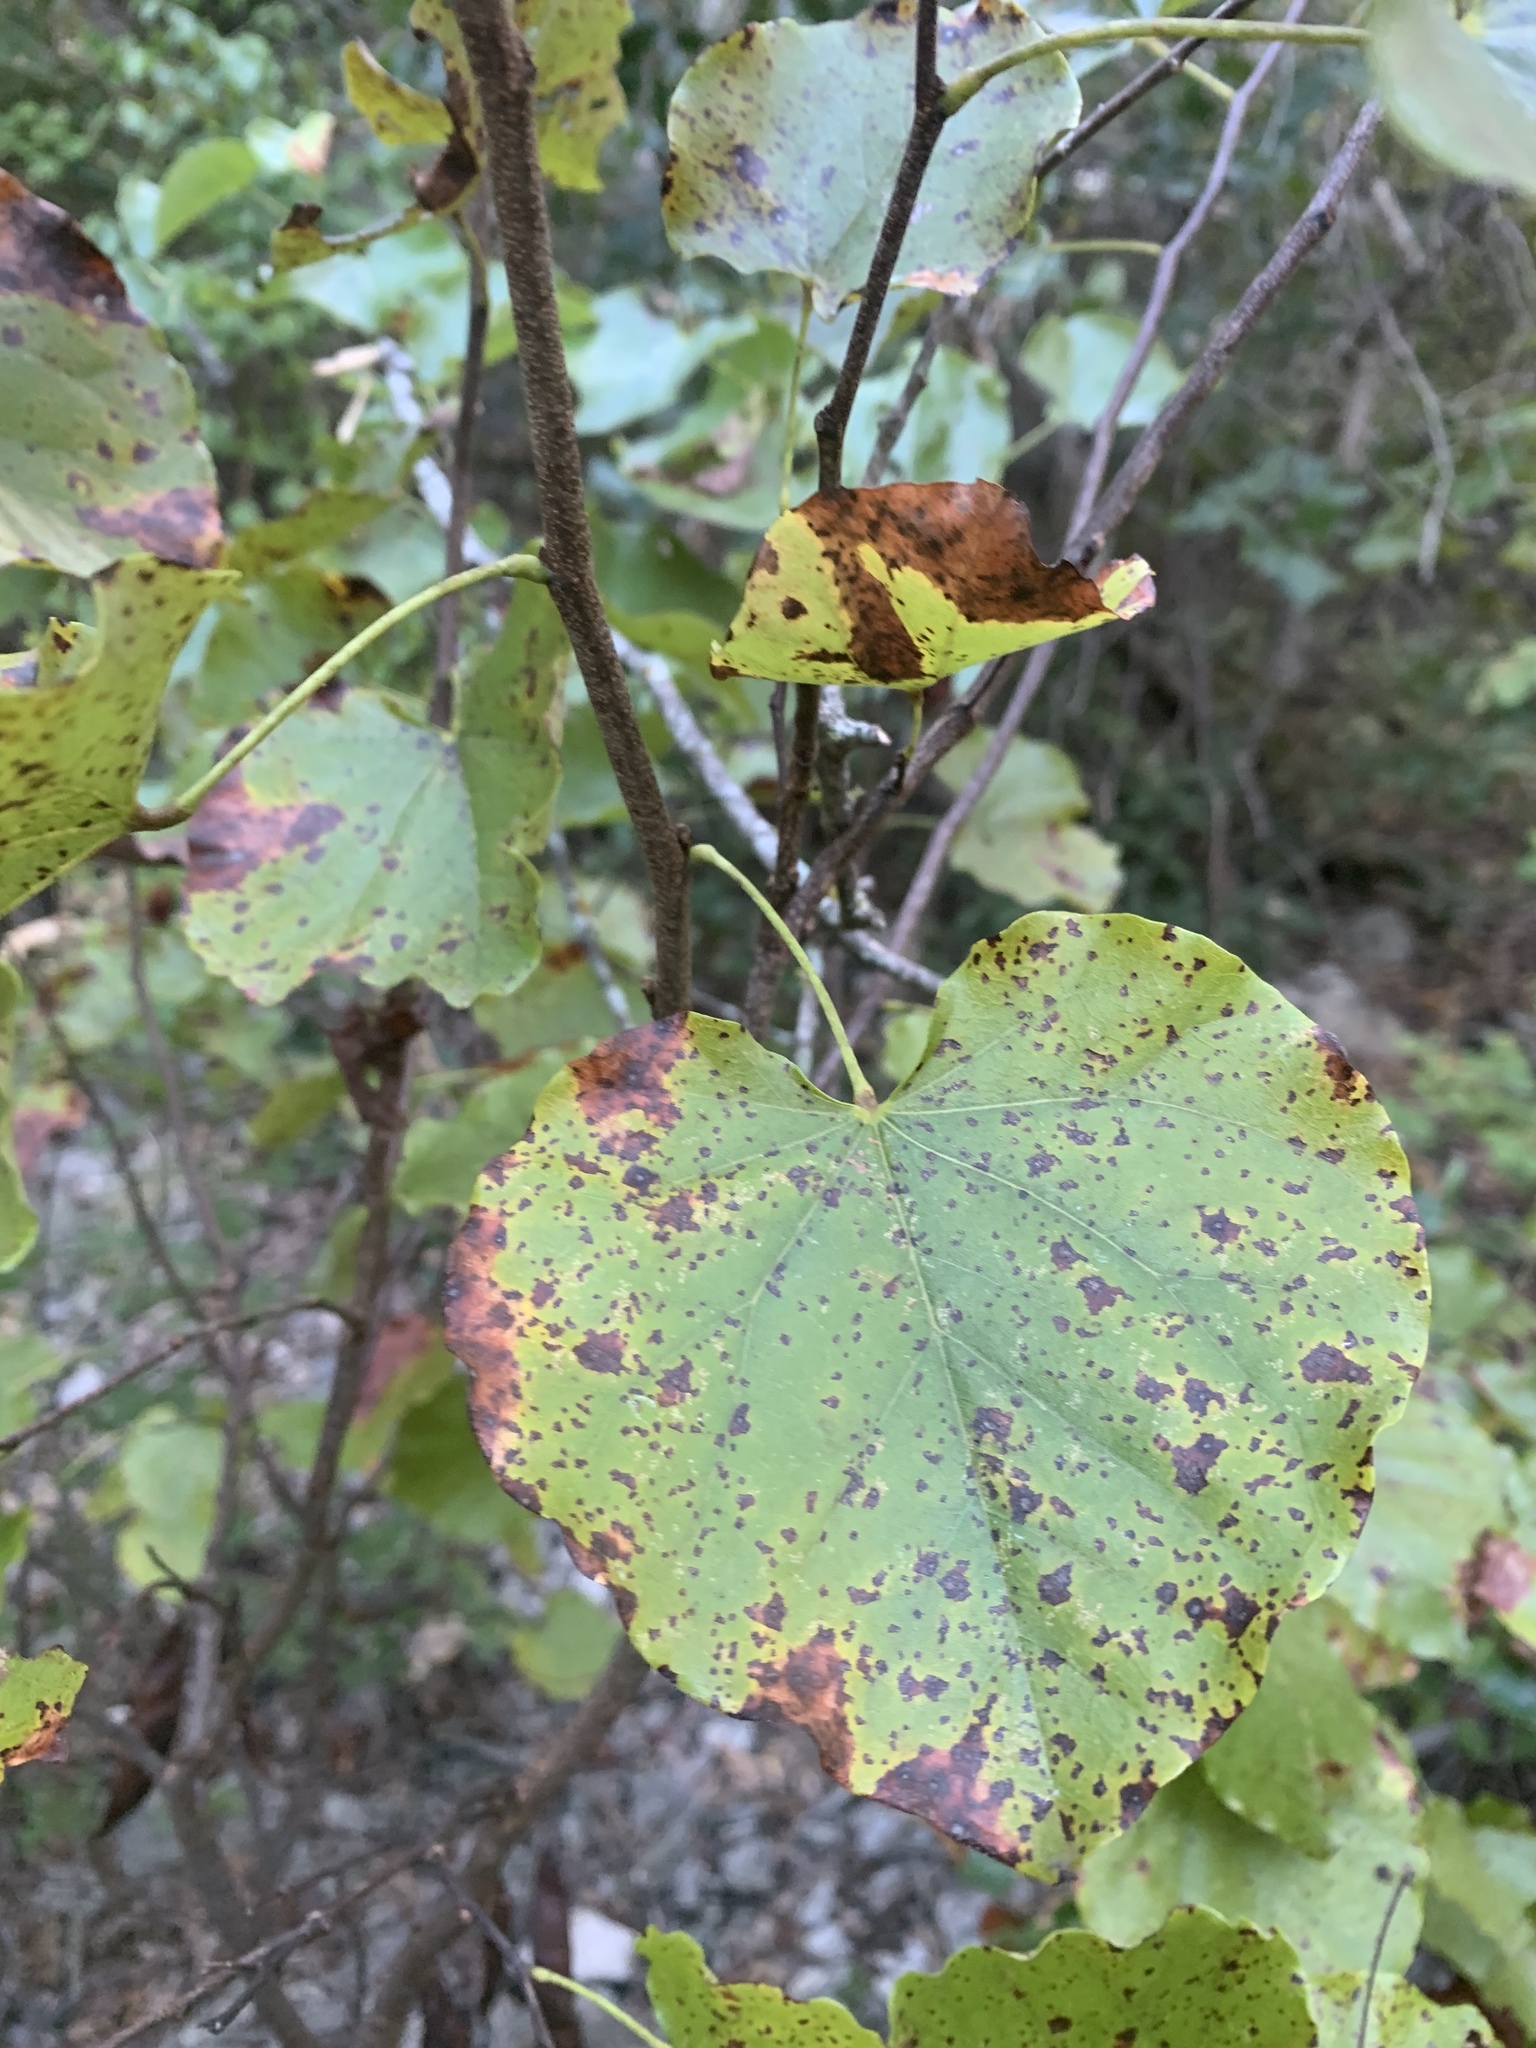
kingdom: Plantae
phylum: Tracheophyta
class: Magnoliopsida
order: Fabales
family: Fabaceae
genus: Cercis
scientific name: Cercis canadensis
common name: Eastern redbud
